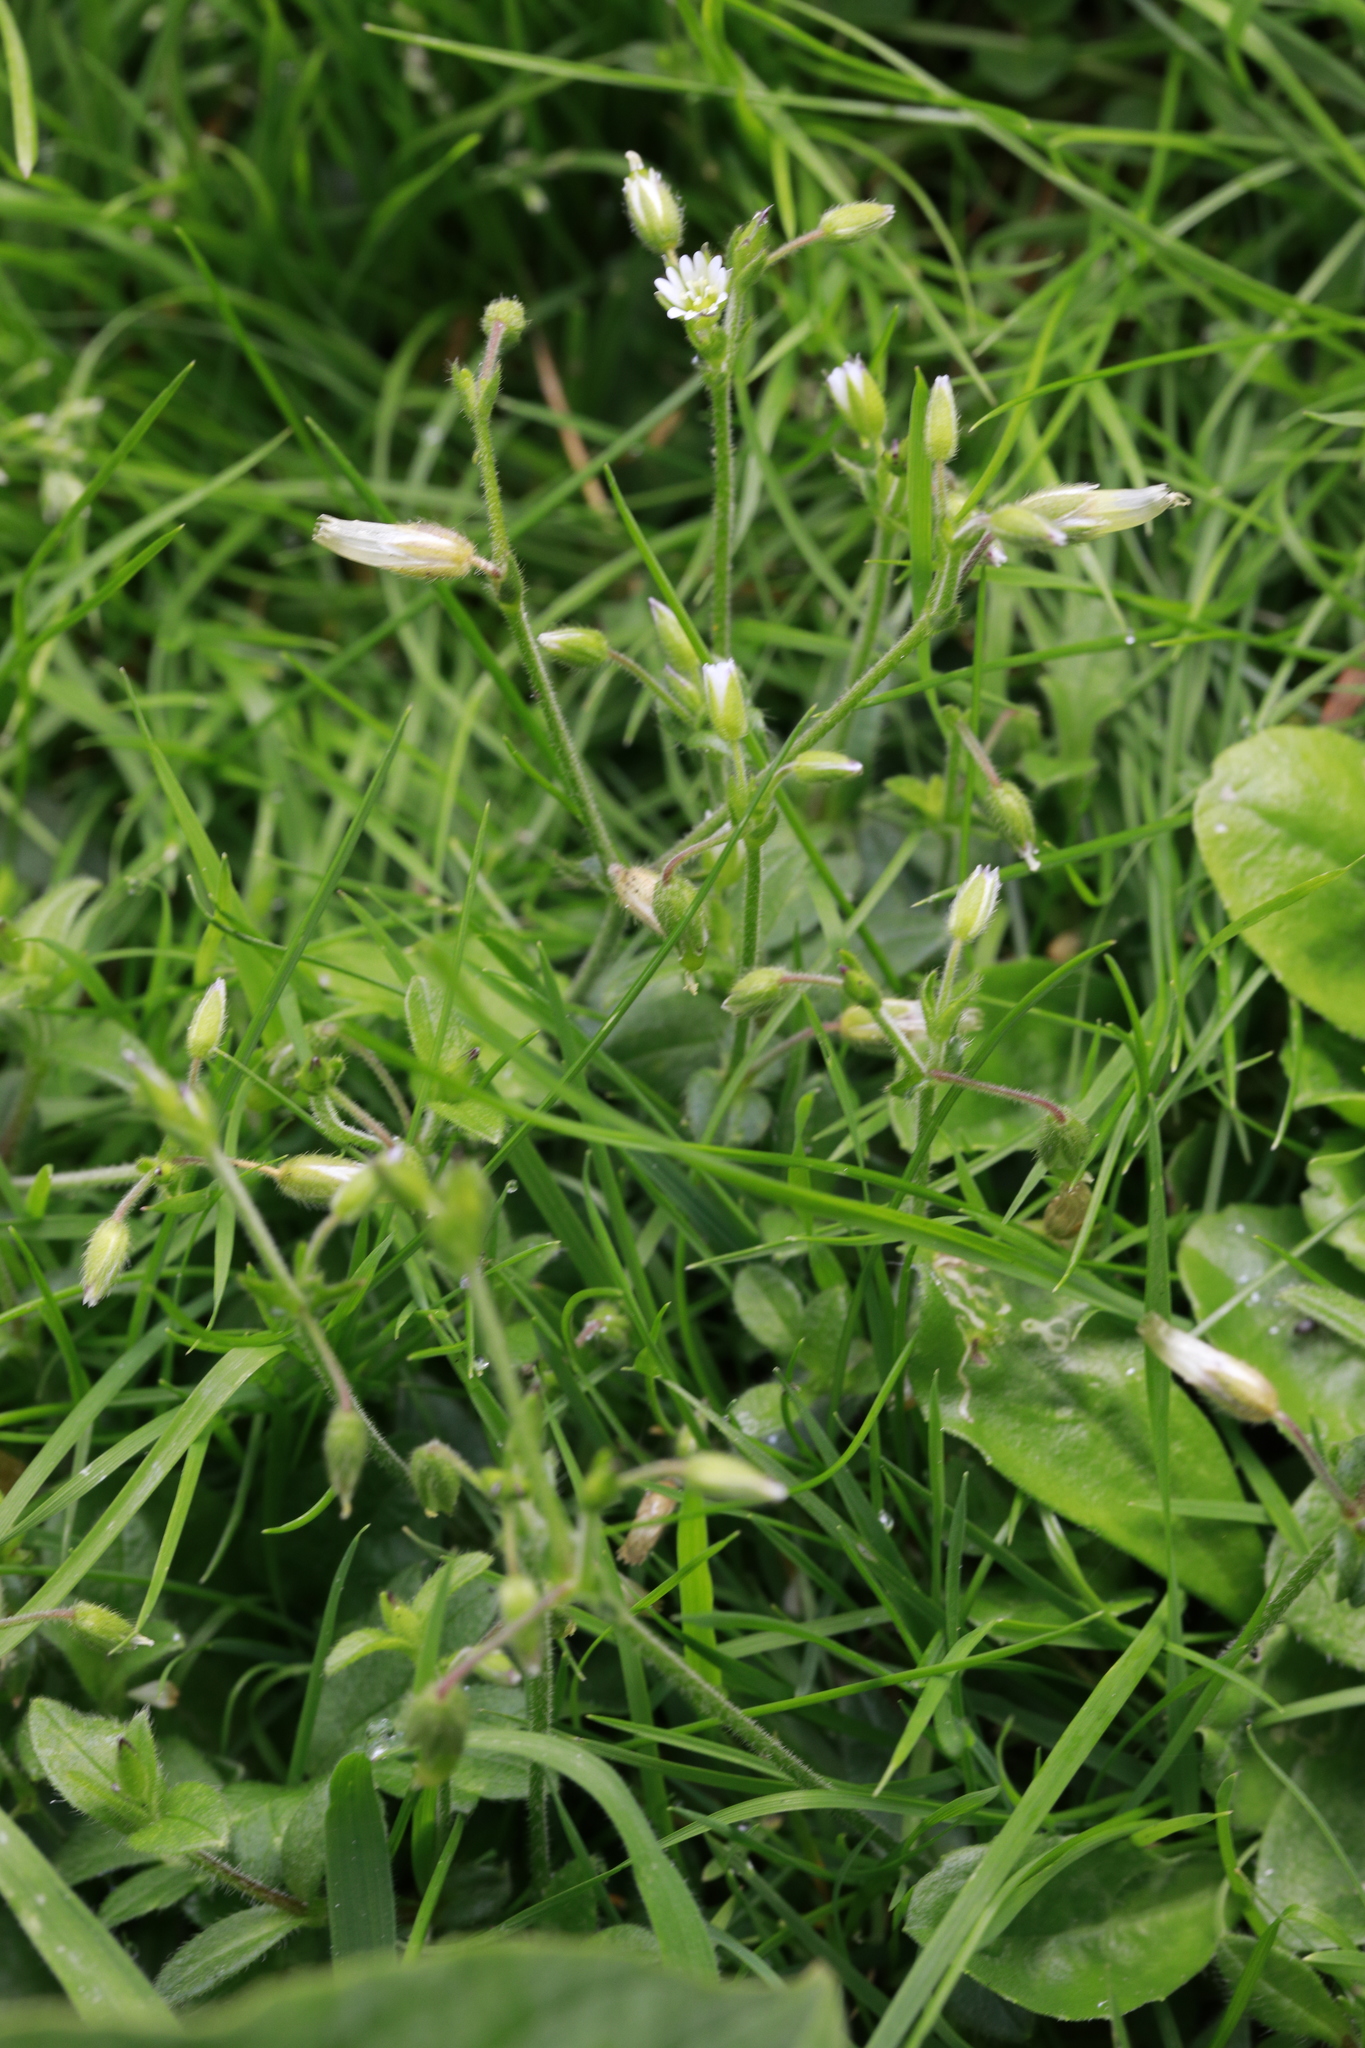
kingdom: Plantae
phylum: Tracheophyta
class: Magnoliopsida
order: Caryophyllales
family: Caryophyllaceae
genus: Cerastium
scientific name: Cerastium fontanum
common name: Common mouse-ear
